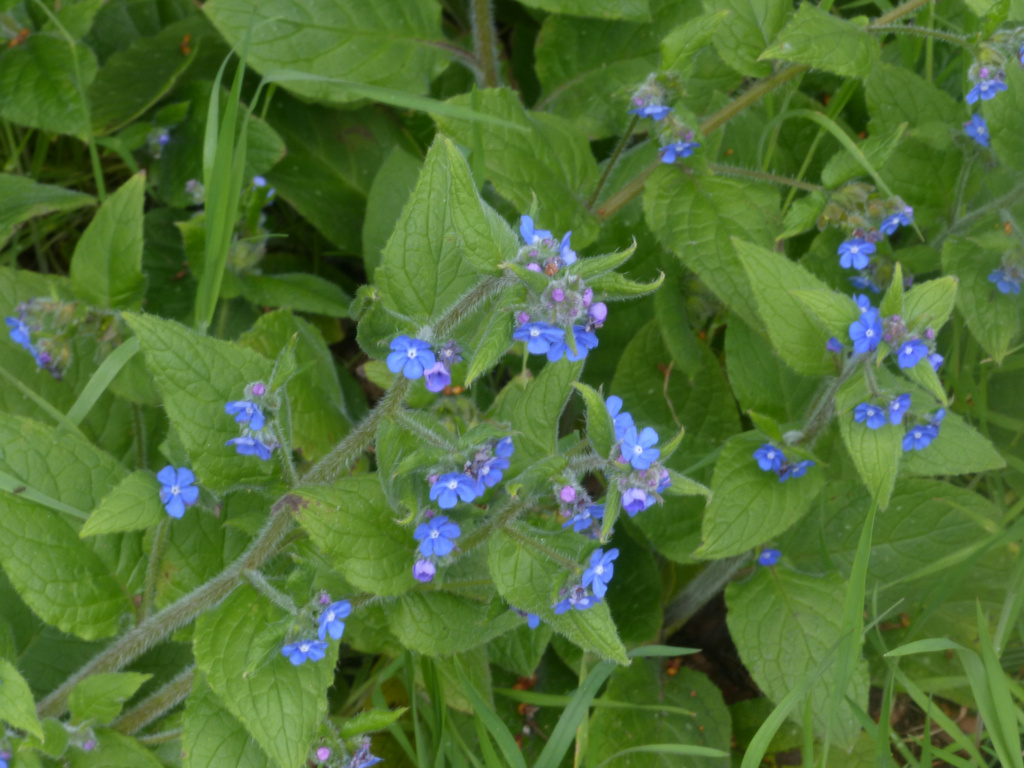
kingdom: Plantae
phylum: Tracheophyta
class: Magnoliopsida
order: Boraginales
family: Boraginaceae
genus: Pentaglottis
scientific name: Pentaglottis sempervirens
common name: Green alkanet
